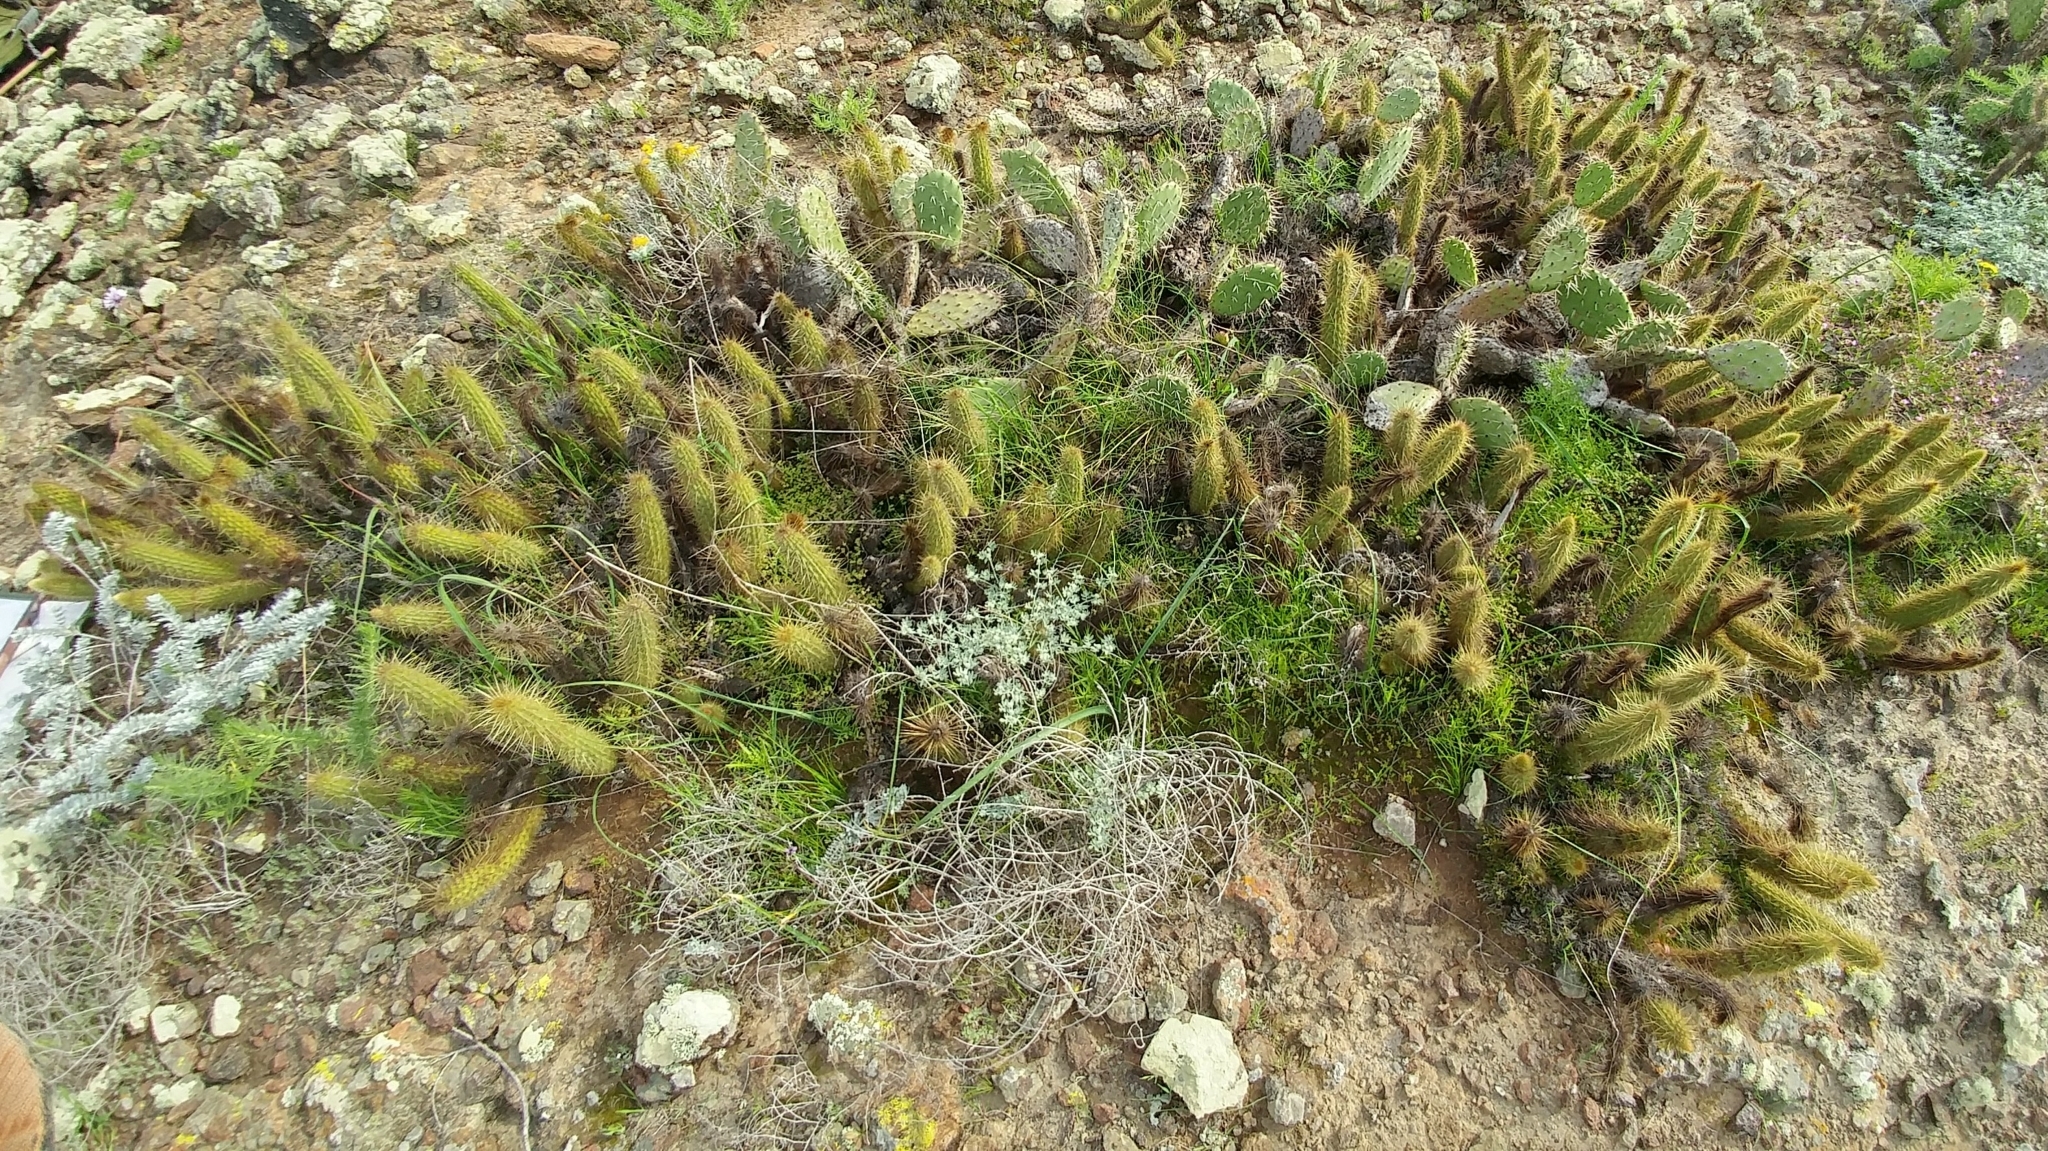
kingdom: Plantae
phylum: Tracheophyta
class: Magnoliopsida
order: Caryophyllales
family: Cactaceae
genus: Bergerocactus
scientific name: Bergerocactus emoryi
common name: Golden snakecactus
